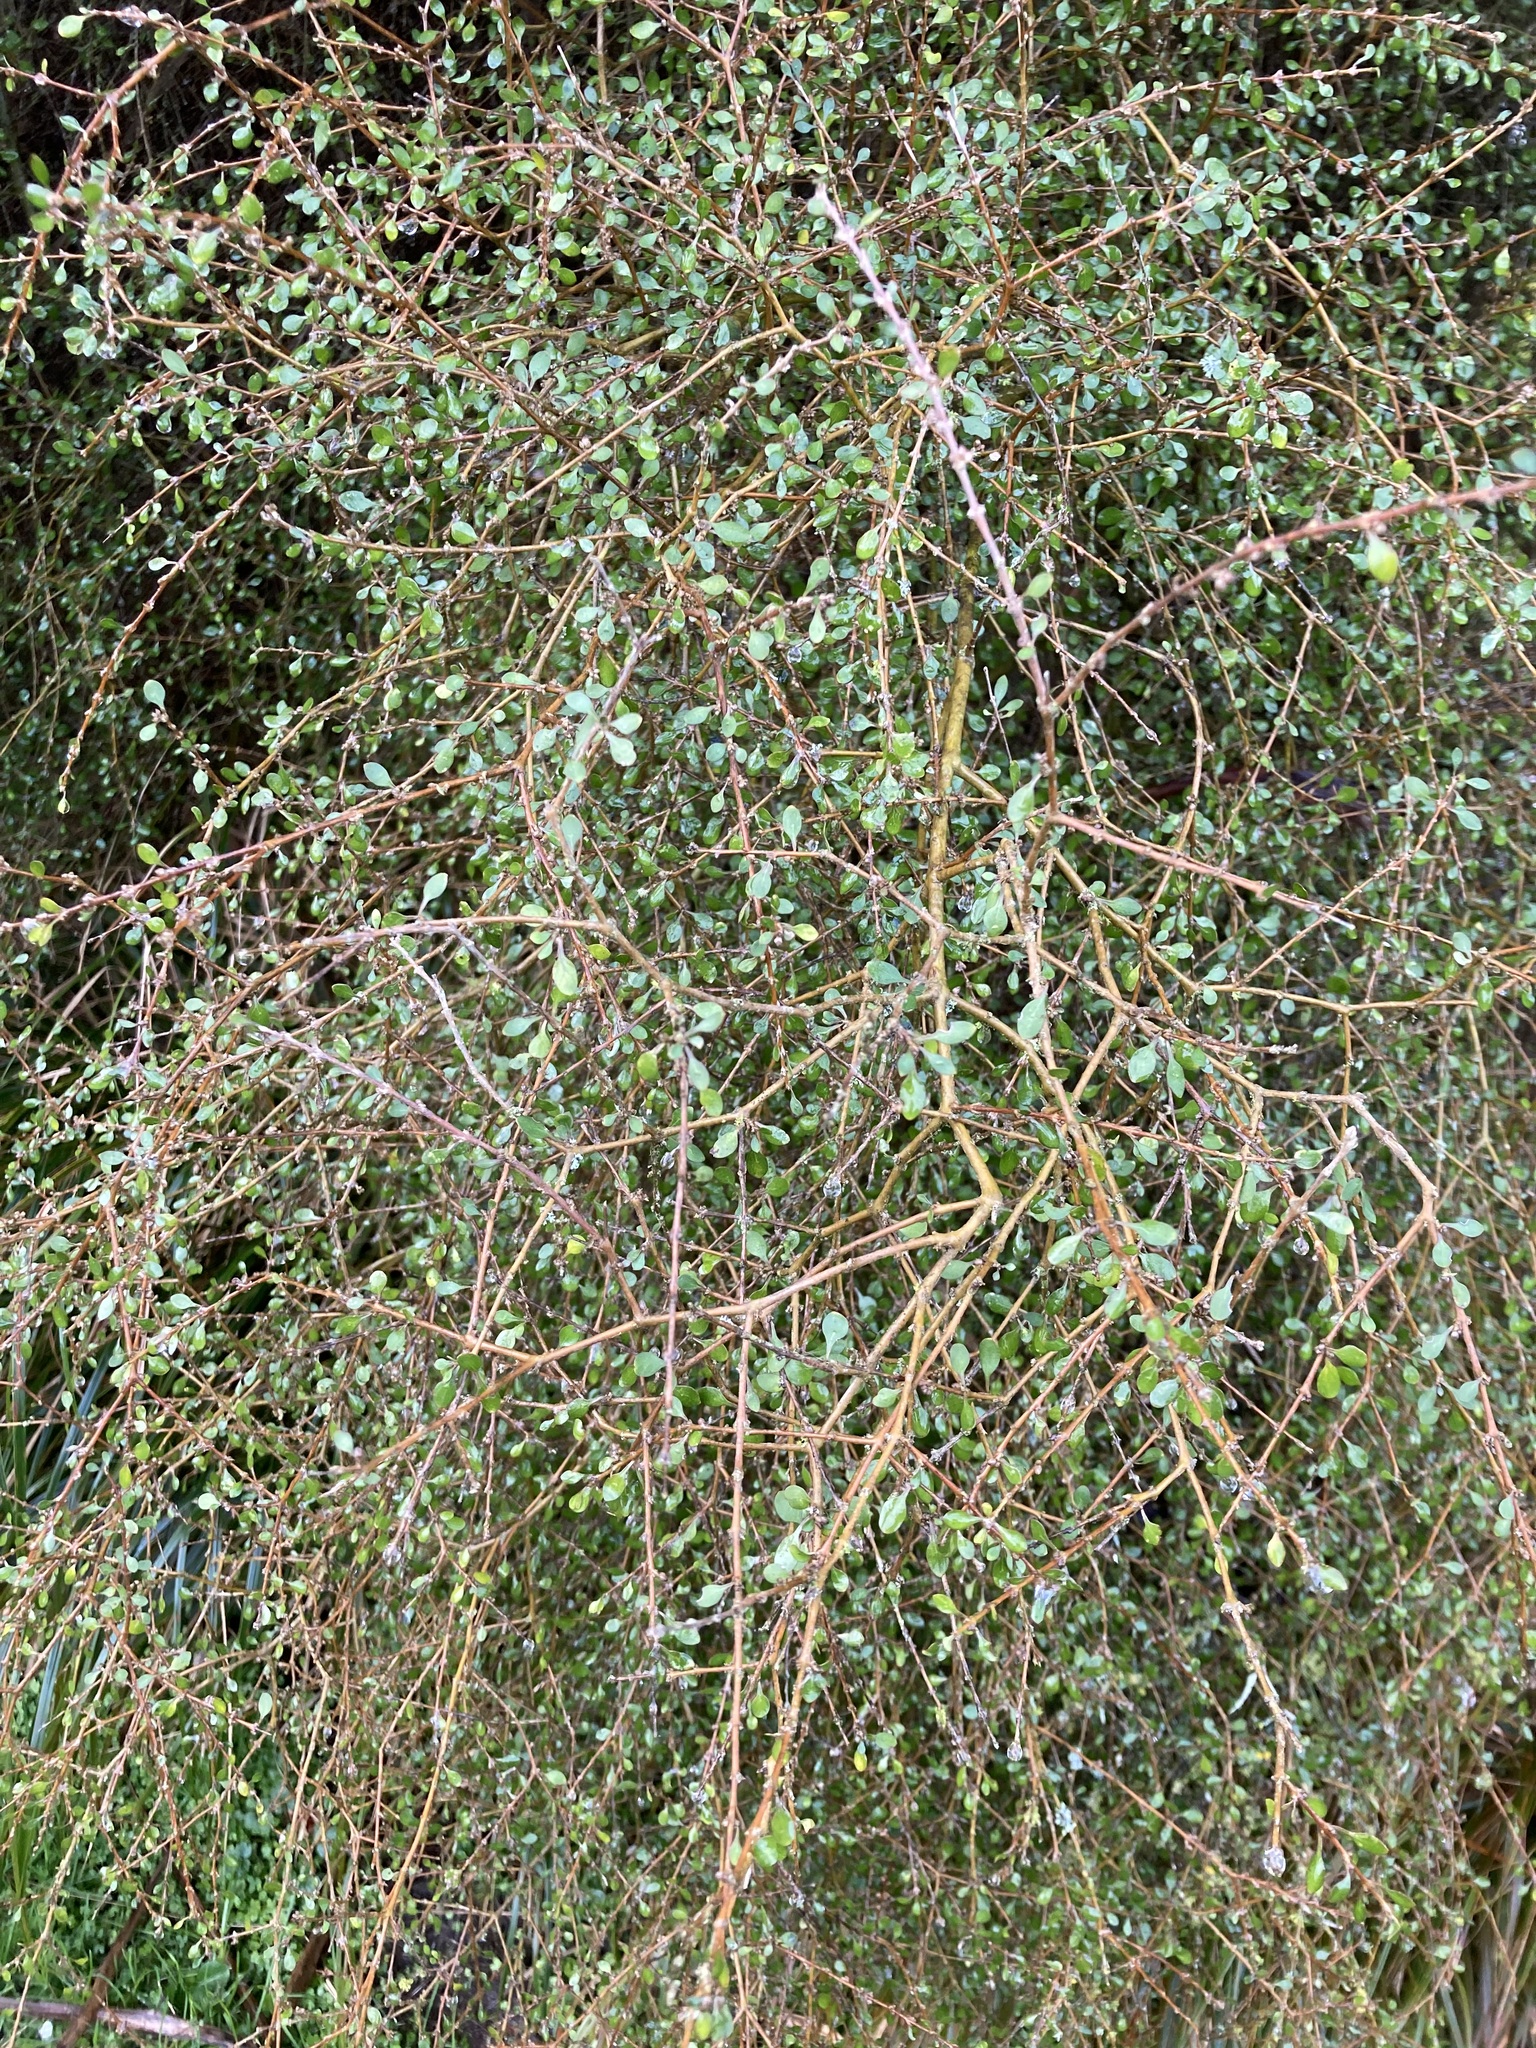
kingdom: Plantae
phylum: Tracheophyta
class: Magnoliopsida
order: Gentianales
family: Rubiaceae
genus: Coprosma
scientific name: Coprosma virescens
